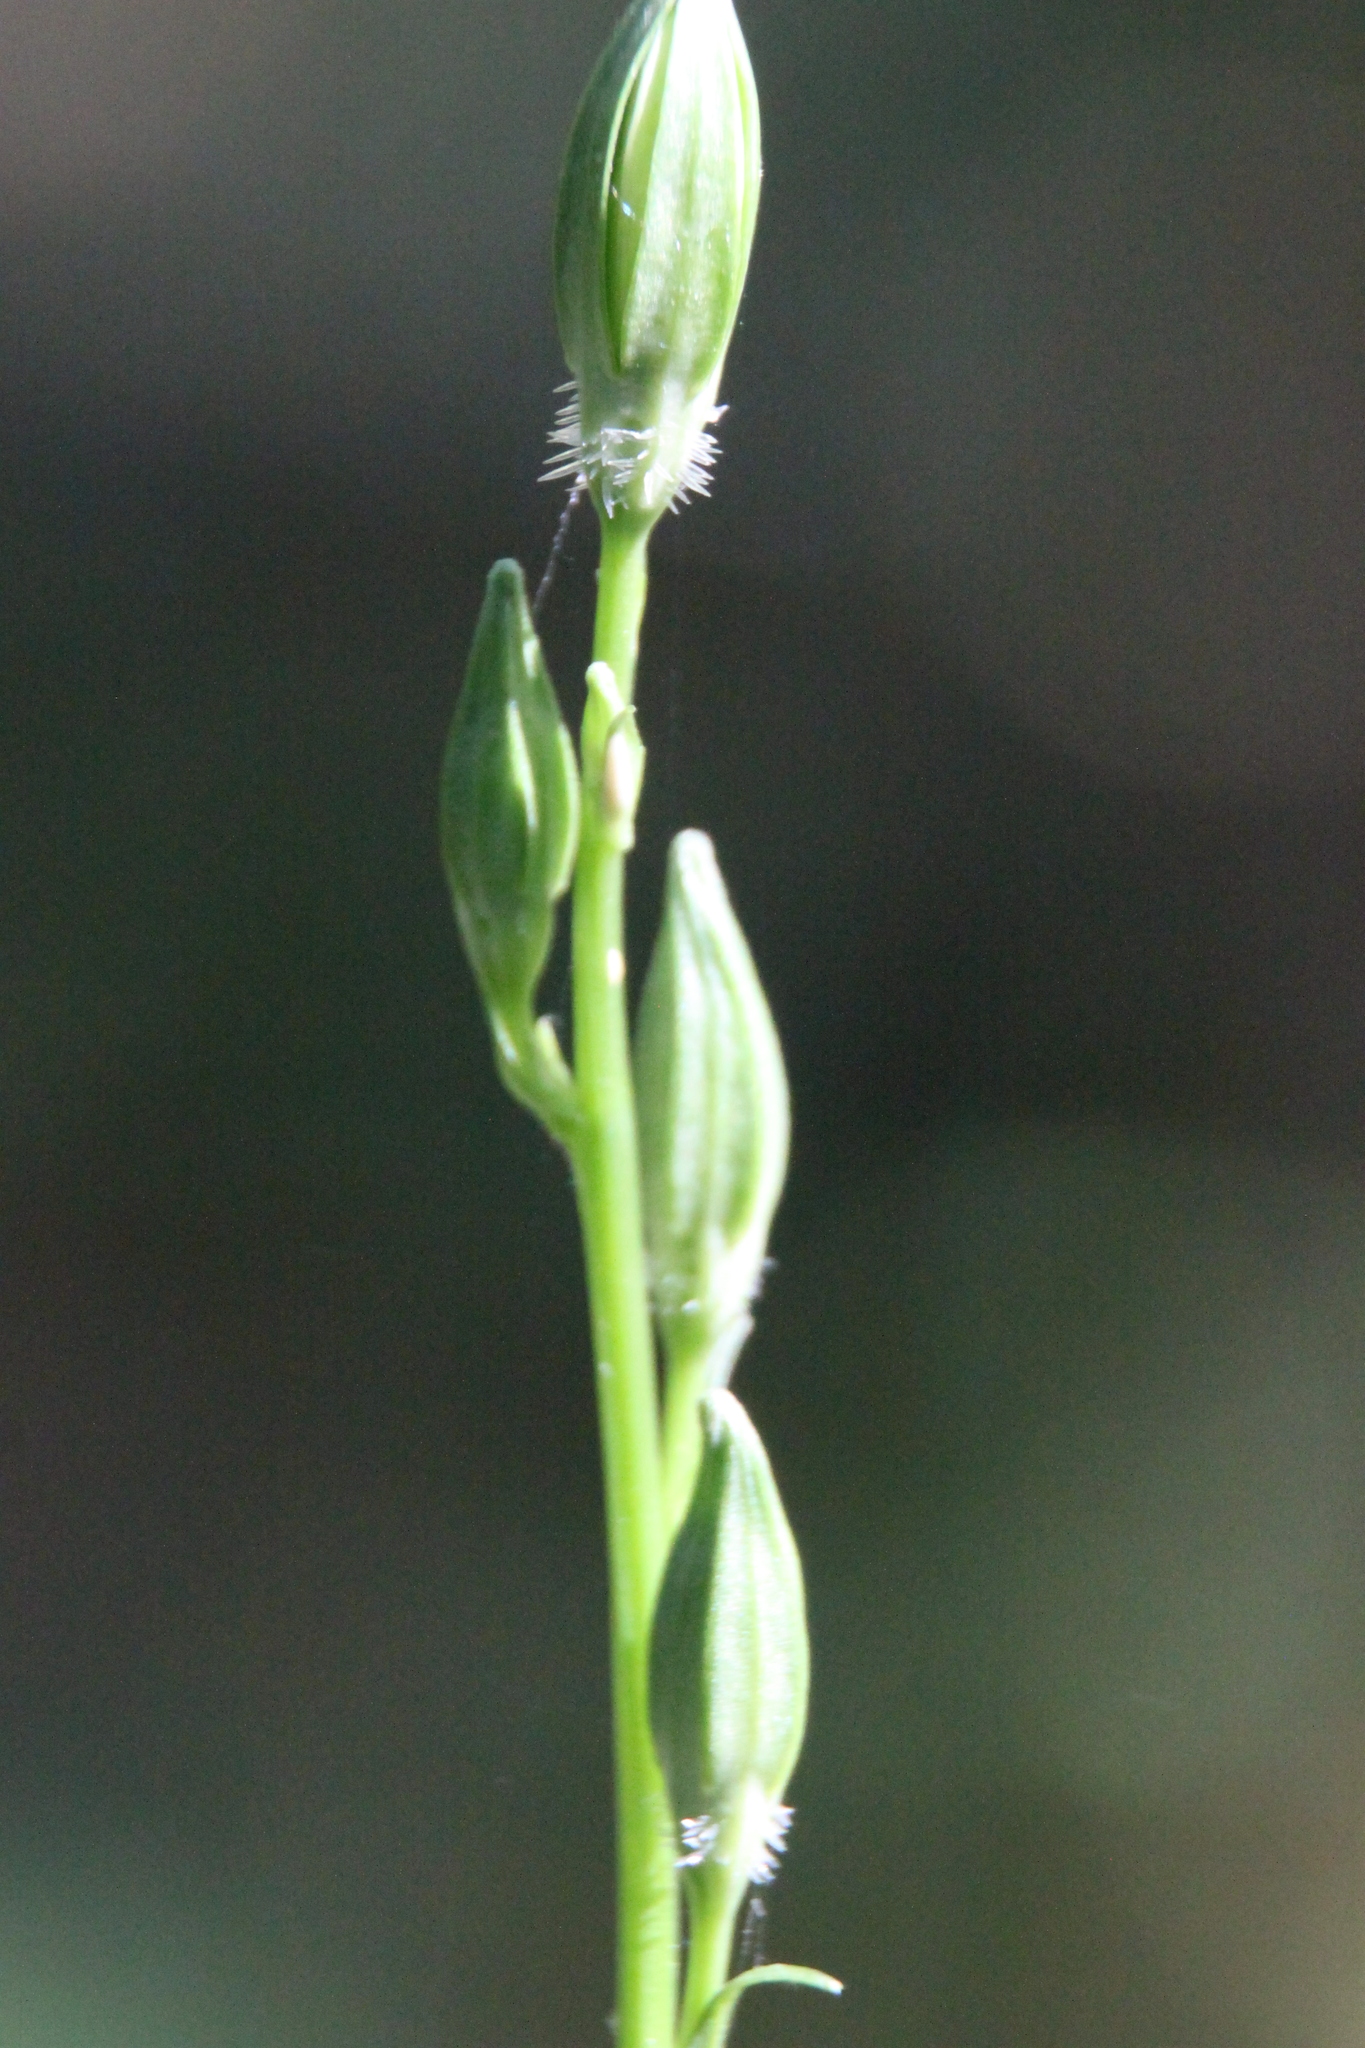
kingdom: Plantae
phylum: Tracheophyta
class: Magnoliopsida
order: Asterales
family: Campanulaceae
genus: Campanula
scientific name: Campanula persicifolia
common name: Peach-leaved bellflower
